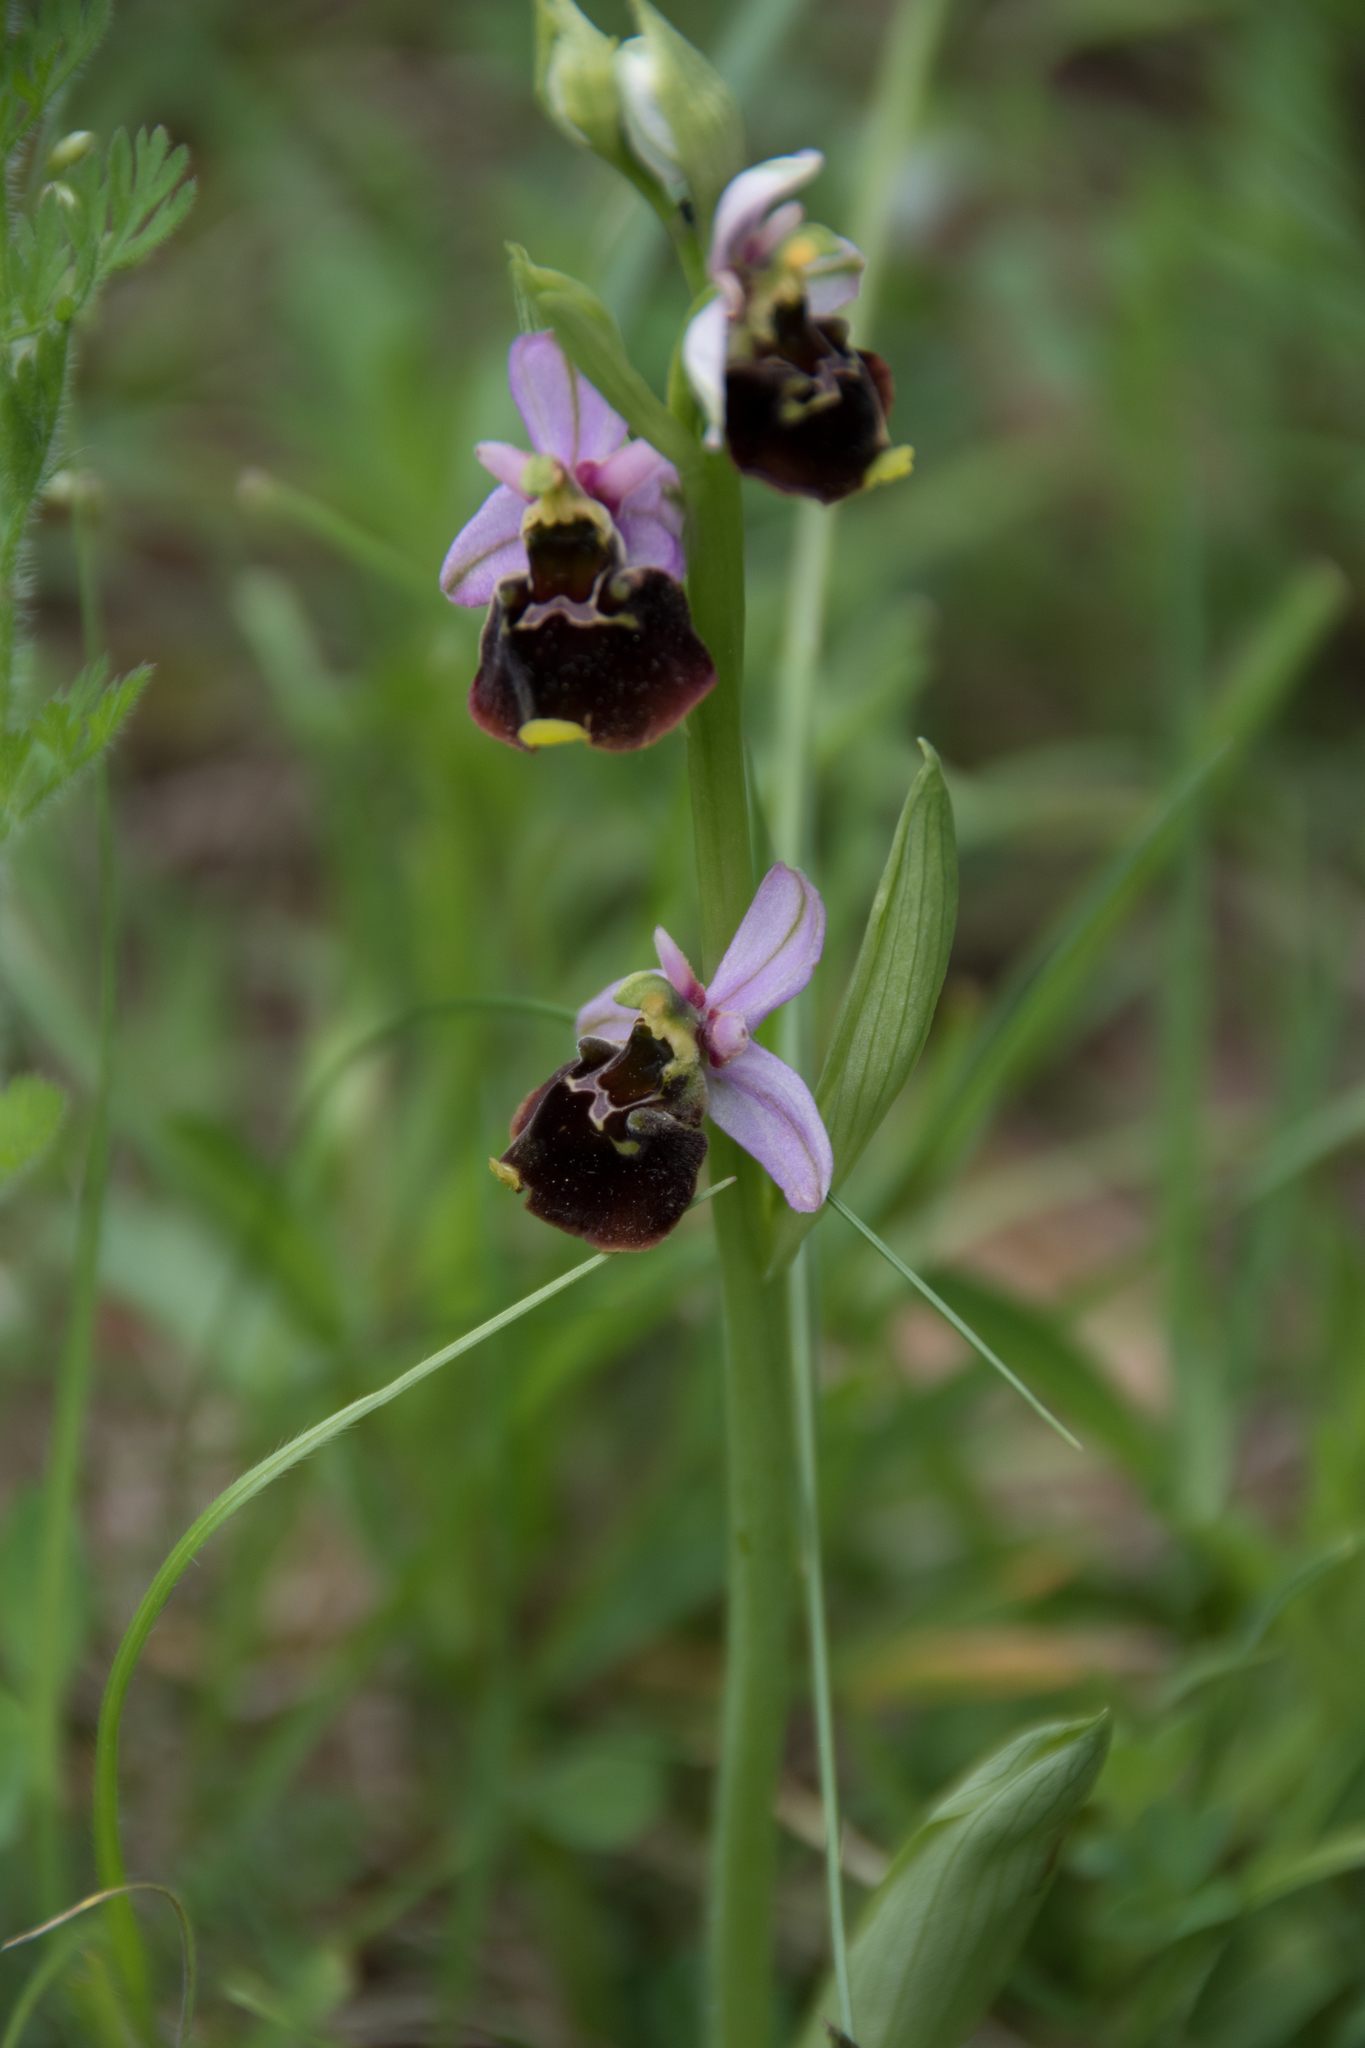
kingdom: Plantae
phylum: Tracheophyta
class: Liliopsida
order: Asparagales
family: Orchidaceae
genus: Ophrys
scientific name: Ophrys holosericea
